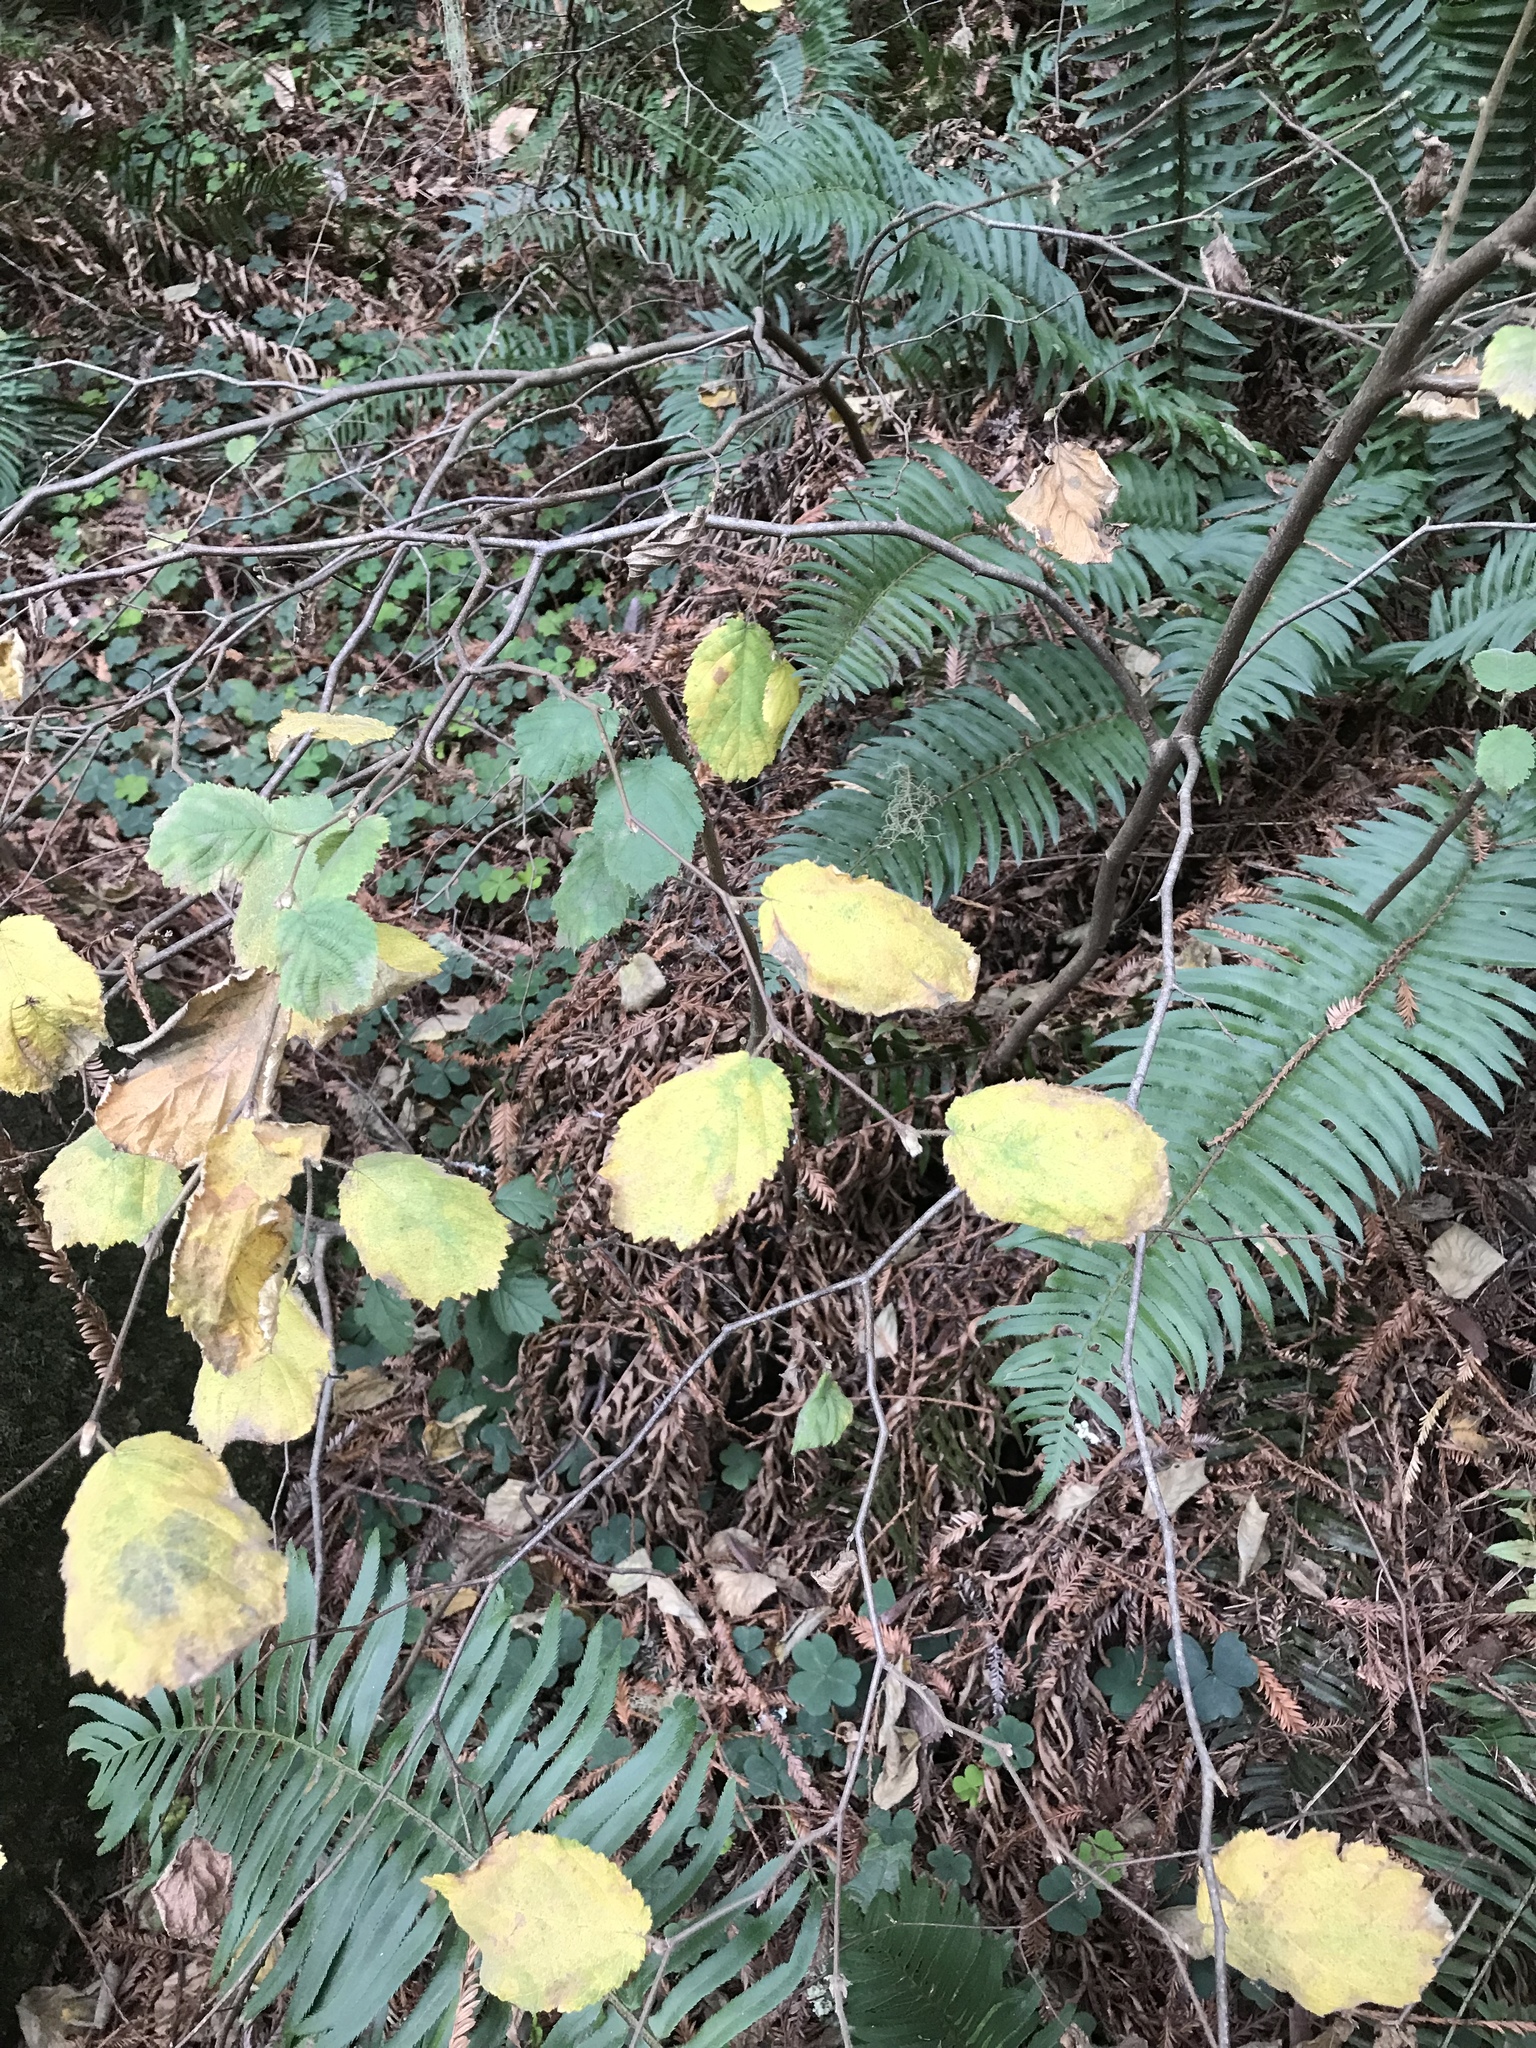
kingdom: Plantae
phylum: Tracheophyta
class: Magnoliopsida
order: Fagales
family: Betulaceae
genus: Corylus
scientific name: Corylus cornuta
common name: Beaked hazel
